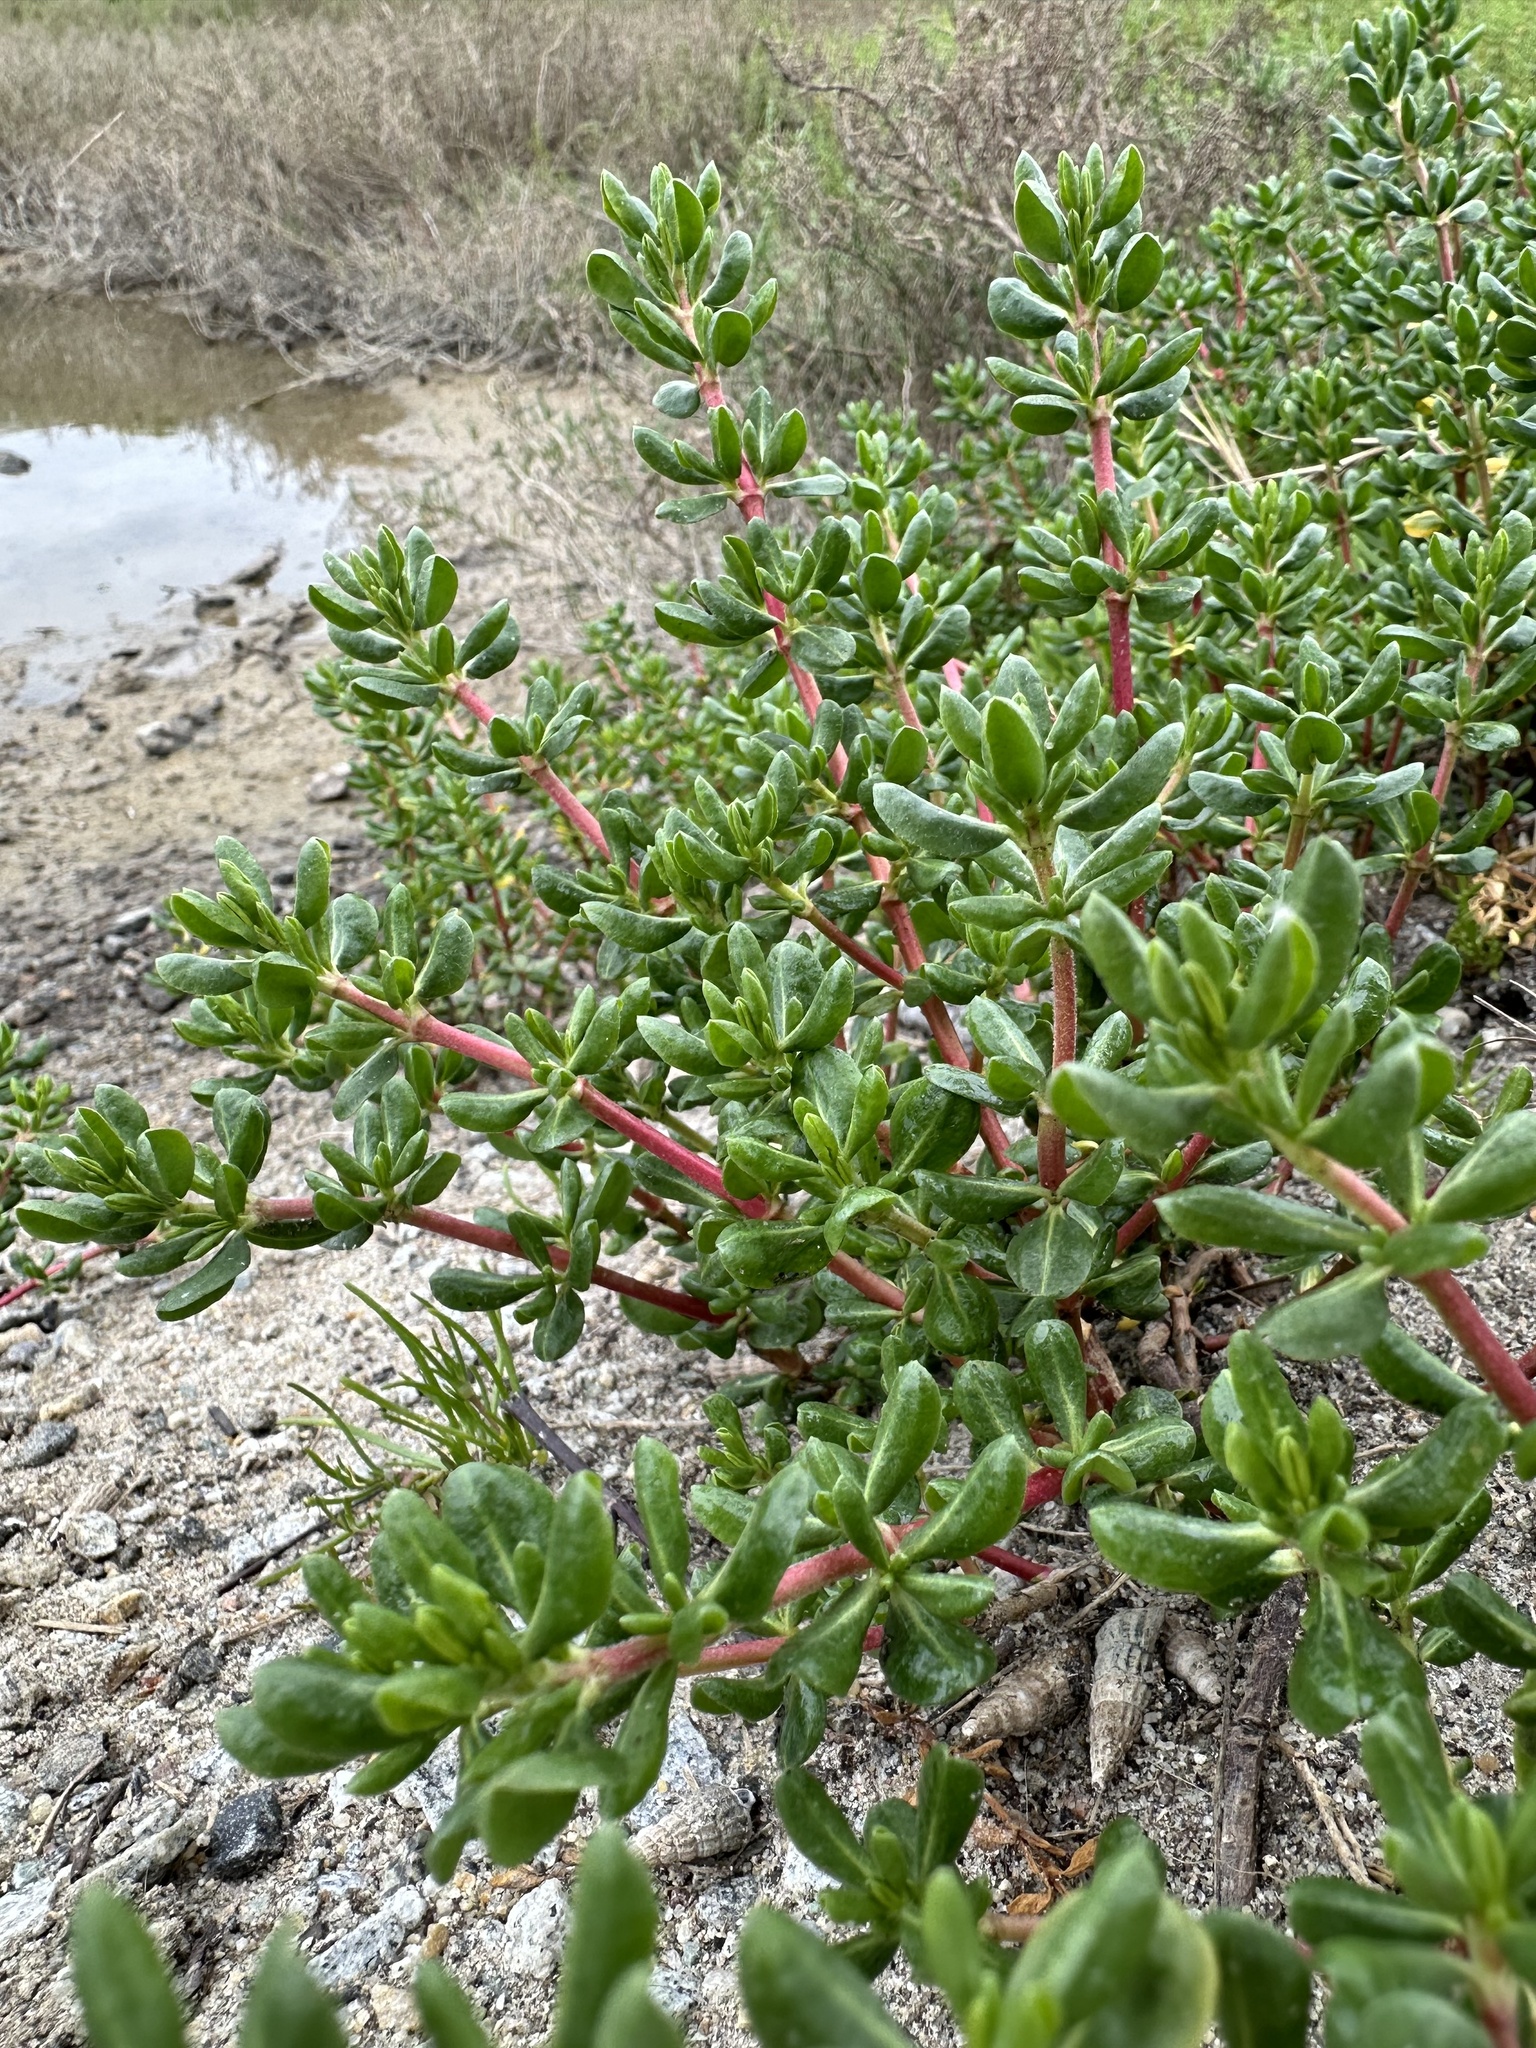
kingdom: Plantae
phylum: Tracheophyta
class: Magnoliopsida
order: Caryophyllales
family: Frankeniaceae
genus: Frankenia
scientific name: Frankenia salina
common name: Alkali seaheath
